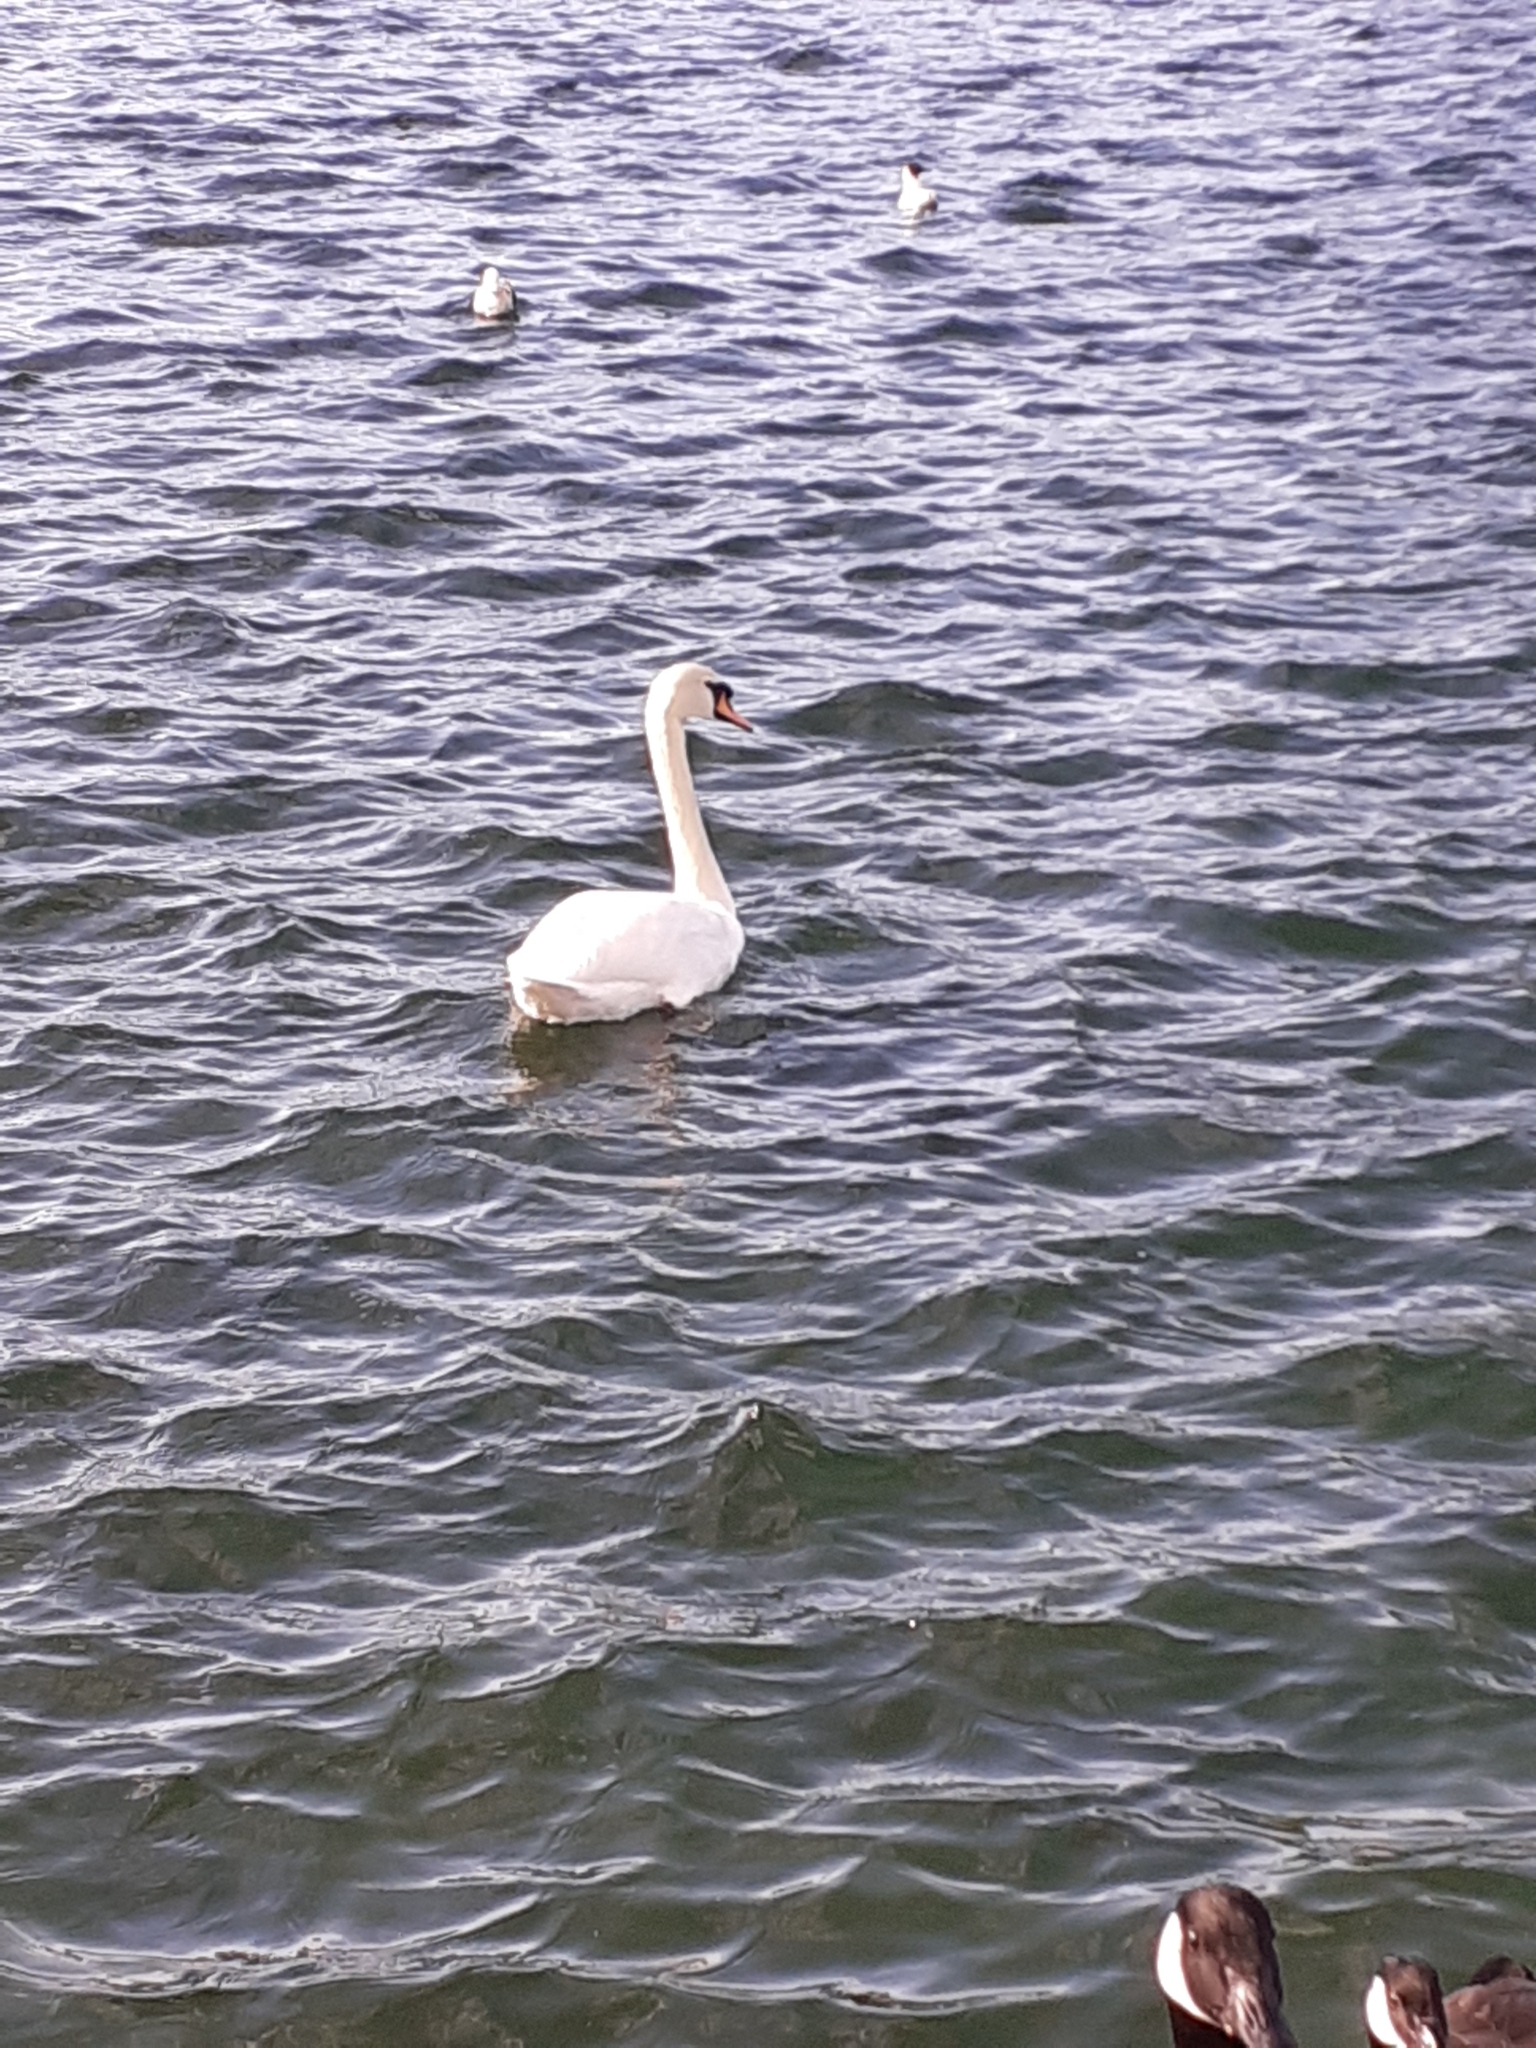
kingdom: Animalia
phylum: Chordata
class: Aves
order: Anseriformes
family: Anatidae
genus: Cygnus
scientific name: Cygnus olor
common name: Mute swan
